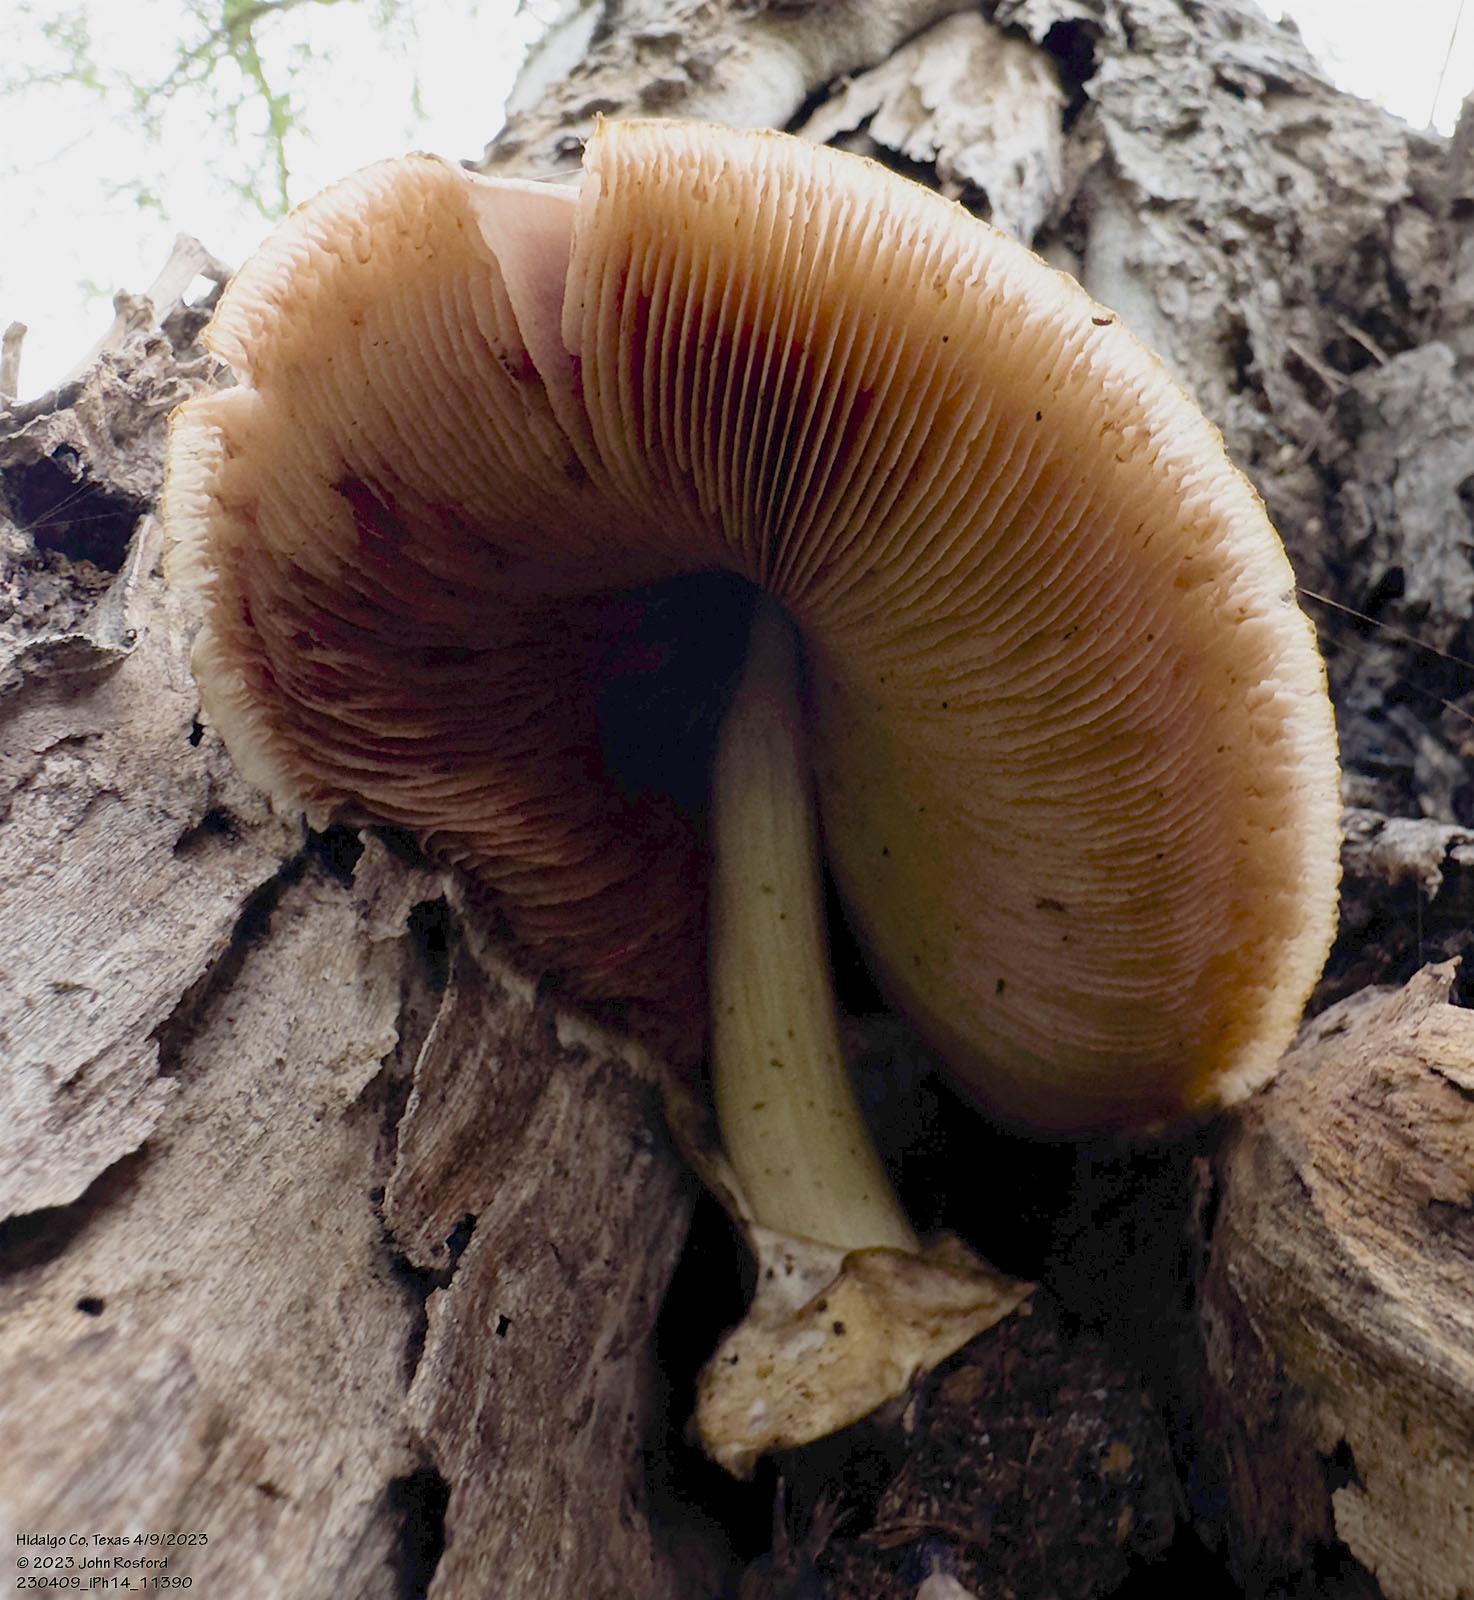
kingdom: Fungi
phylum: Basidiomycota
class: Agaricomycetes
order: Agaricales
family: Pluteaceae
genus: Volvariella
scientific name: Volvariella bombycina
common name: Silky rosegill
